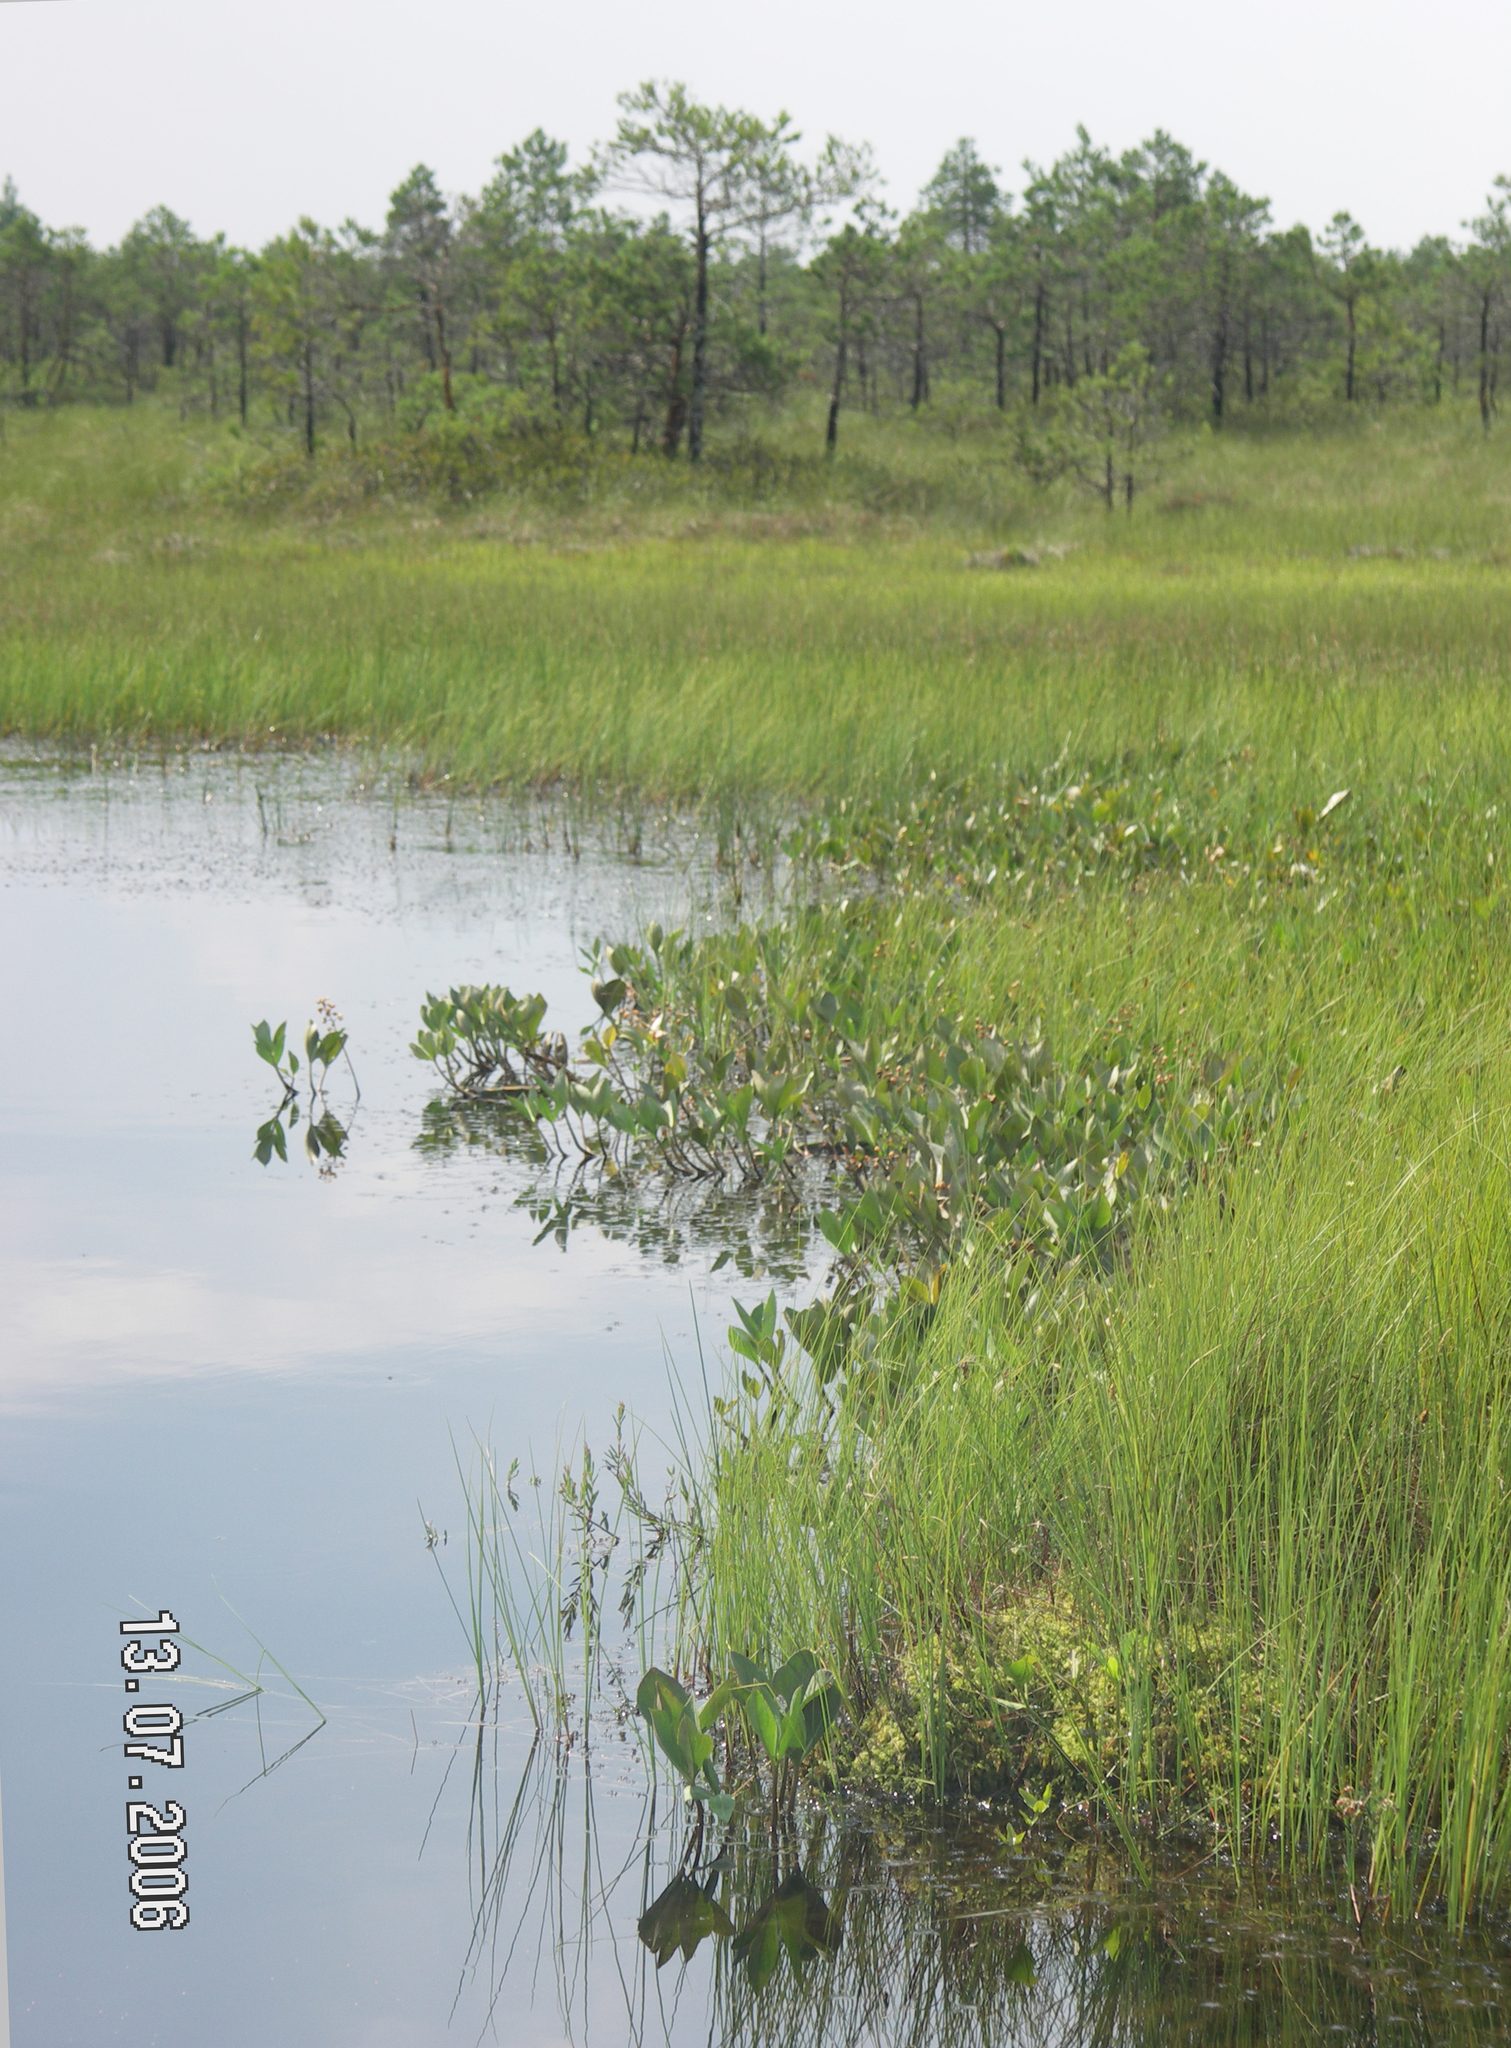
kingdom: Plantae
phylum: Tracheophyta
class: Pinopsida
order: Pinales
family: Pinaceae
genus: Pinus
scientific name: Pinus sylvestris
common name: Scots pine
